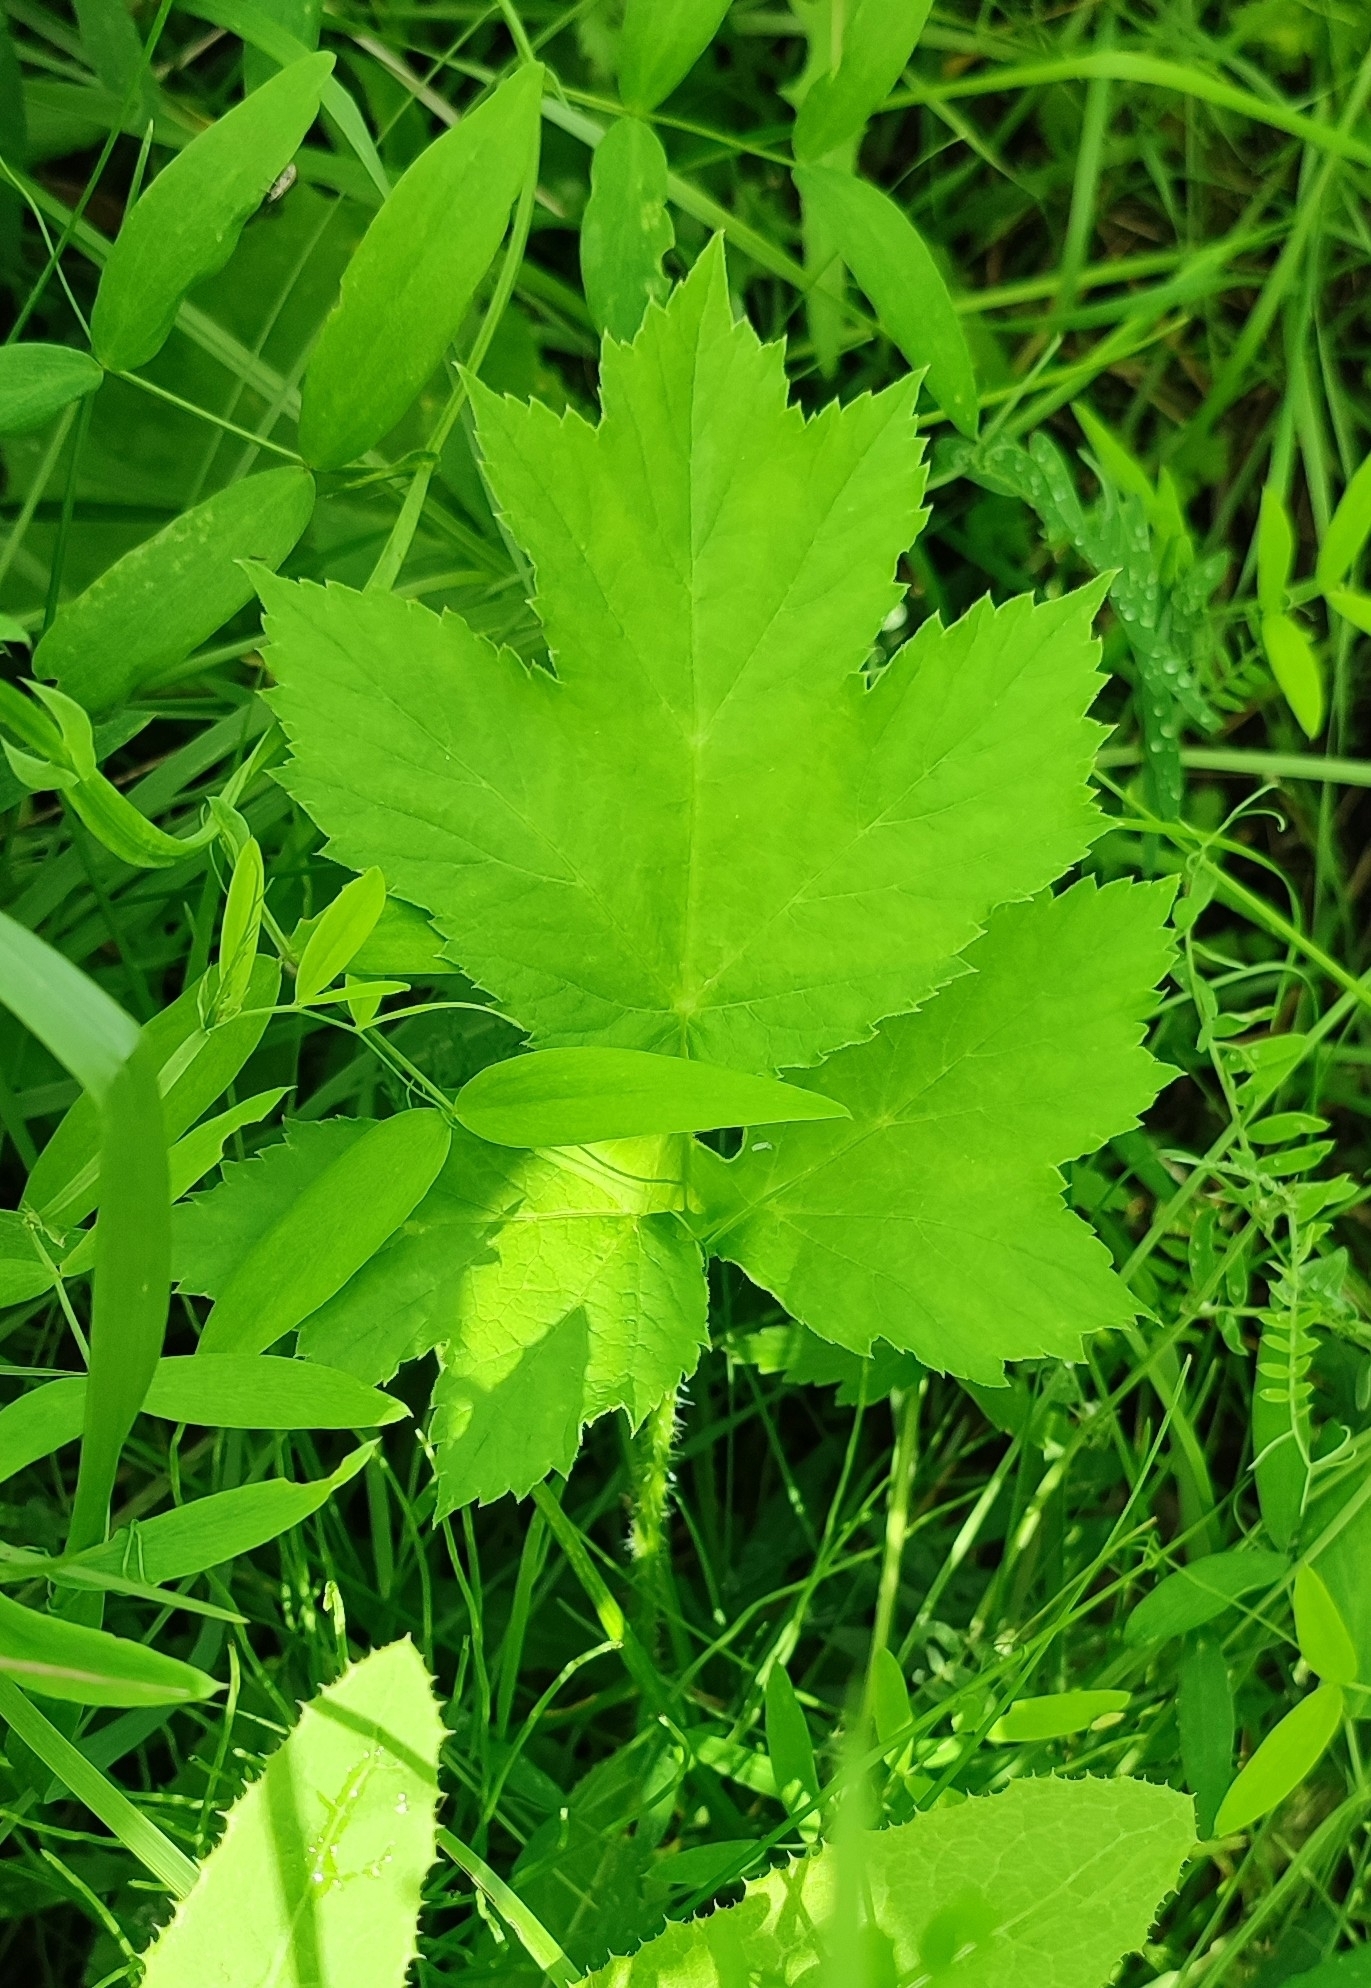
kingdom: Plantae
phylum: Tracheophyta
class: Magnoliopsida
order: Apiales
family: Apiaceae
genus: Heracleum
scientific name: Heracleum sphondylium
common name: Hogweed
